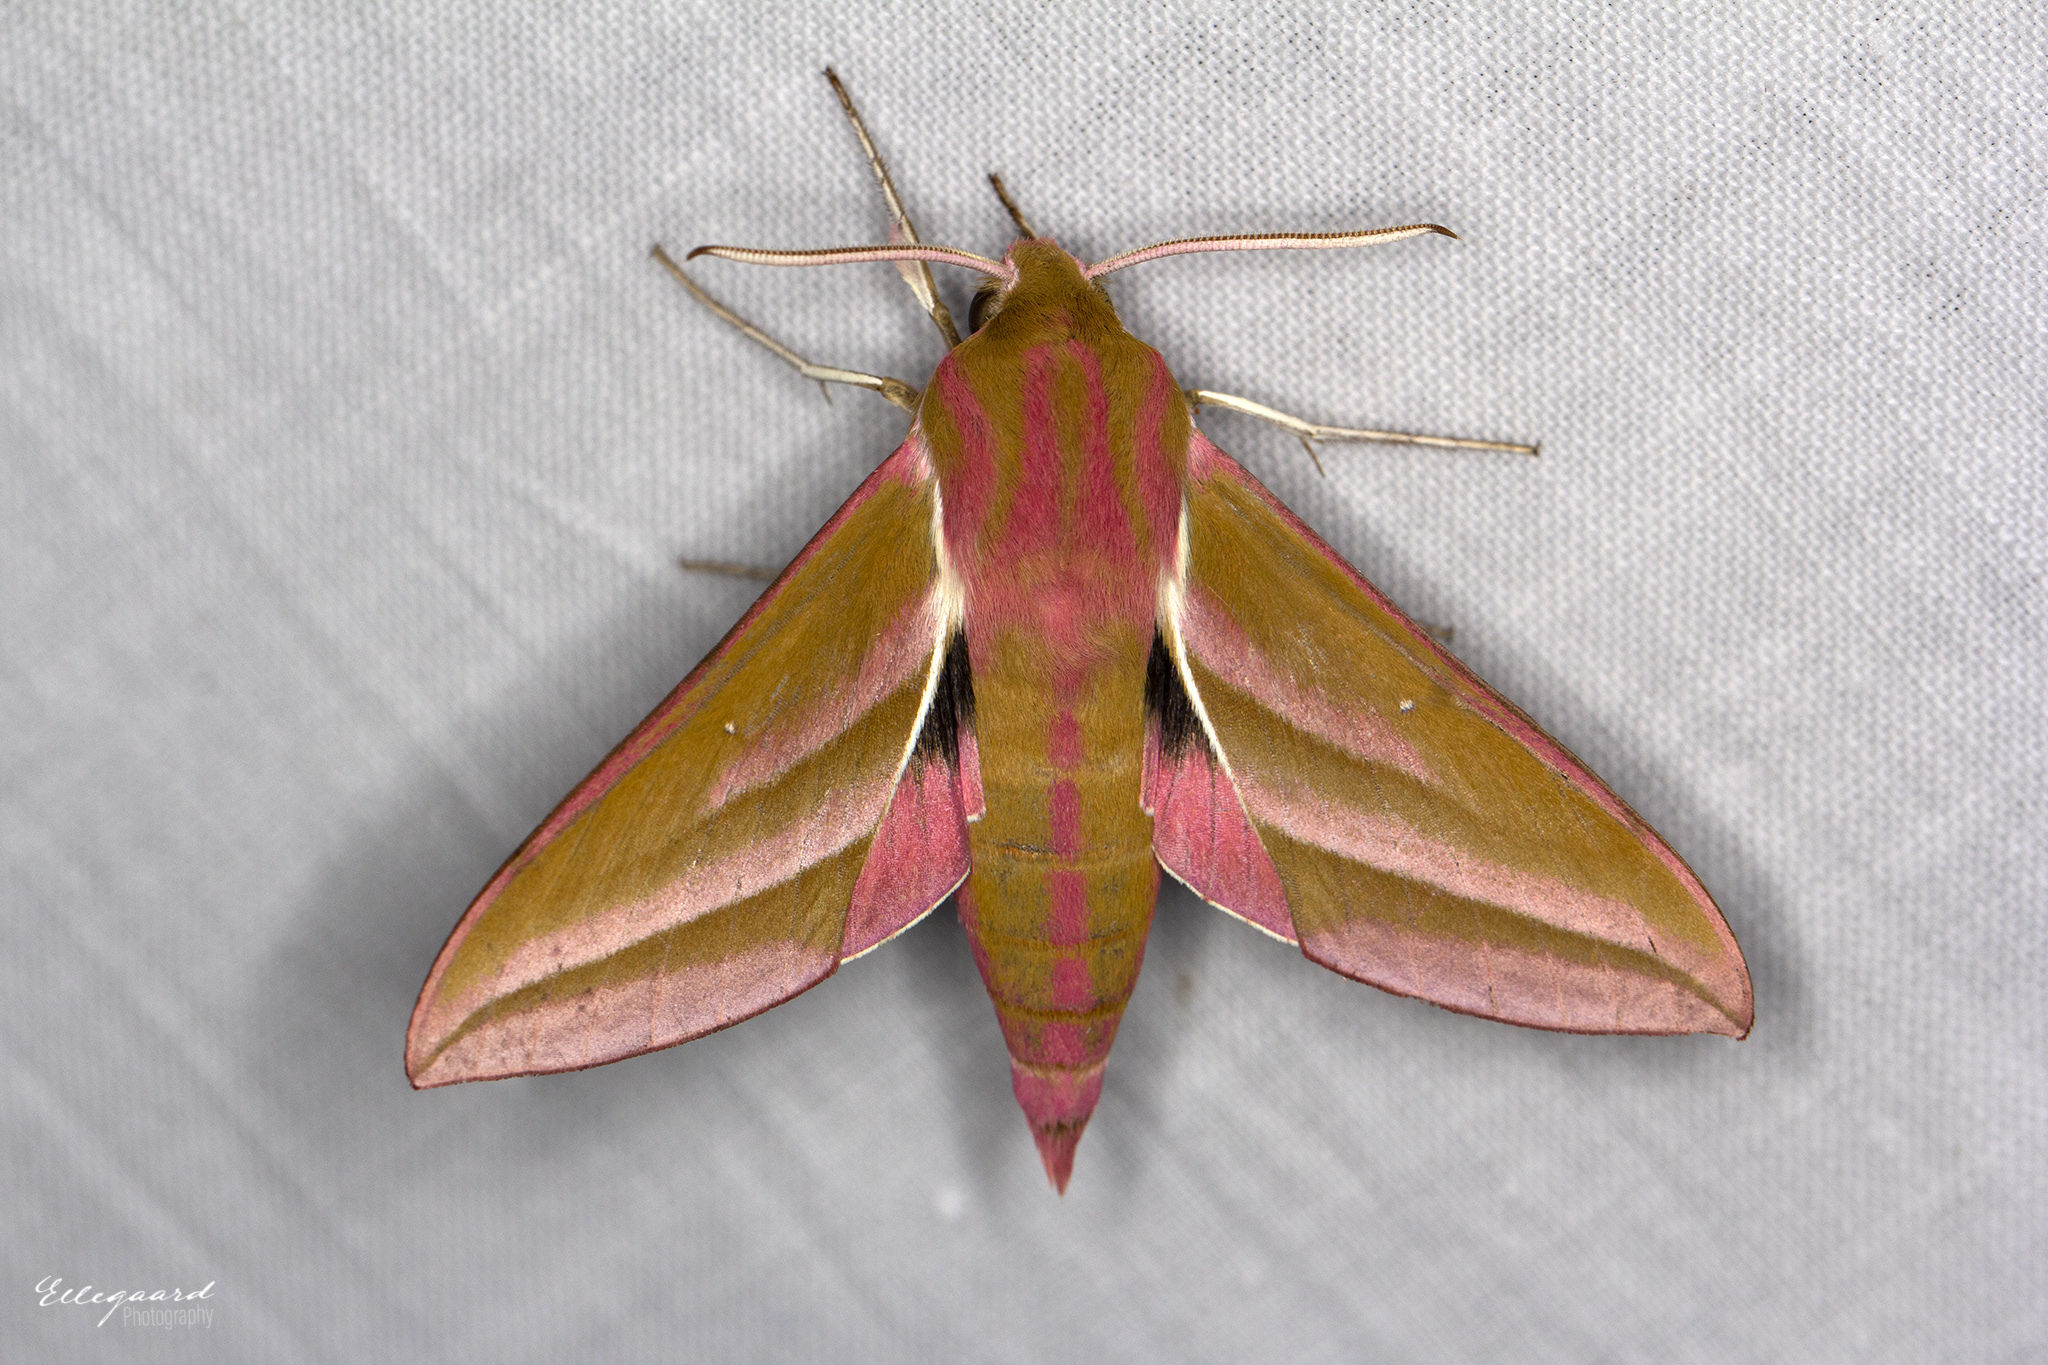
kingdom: Animalia
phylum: Arthropoda
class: Insecta
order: Lepidoptera
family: Sphingidae
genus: Deilephila
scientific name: Deilephila elpenor
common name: Elephant hawk-moth
